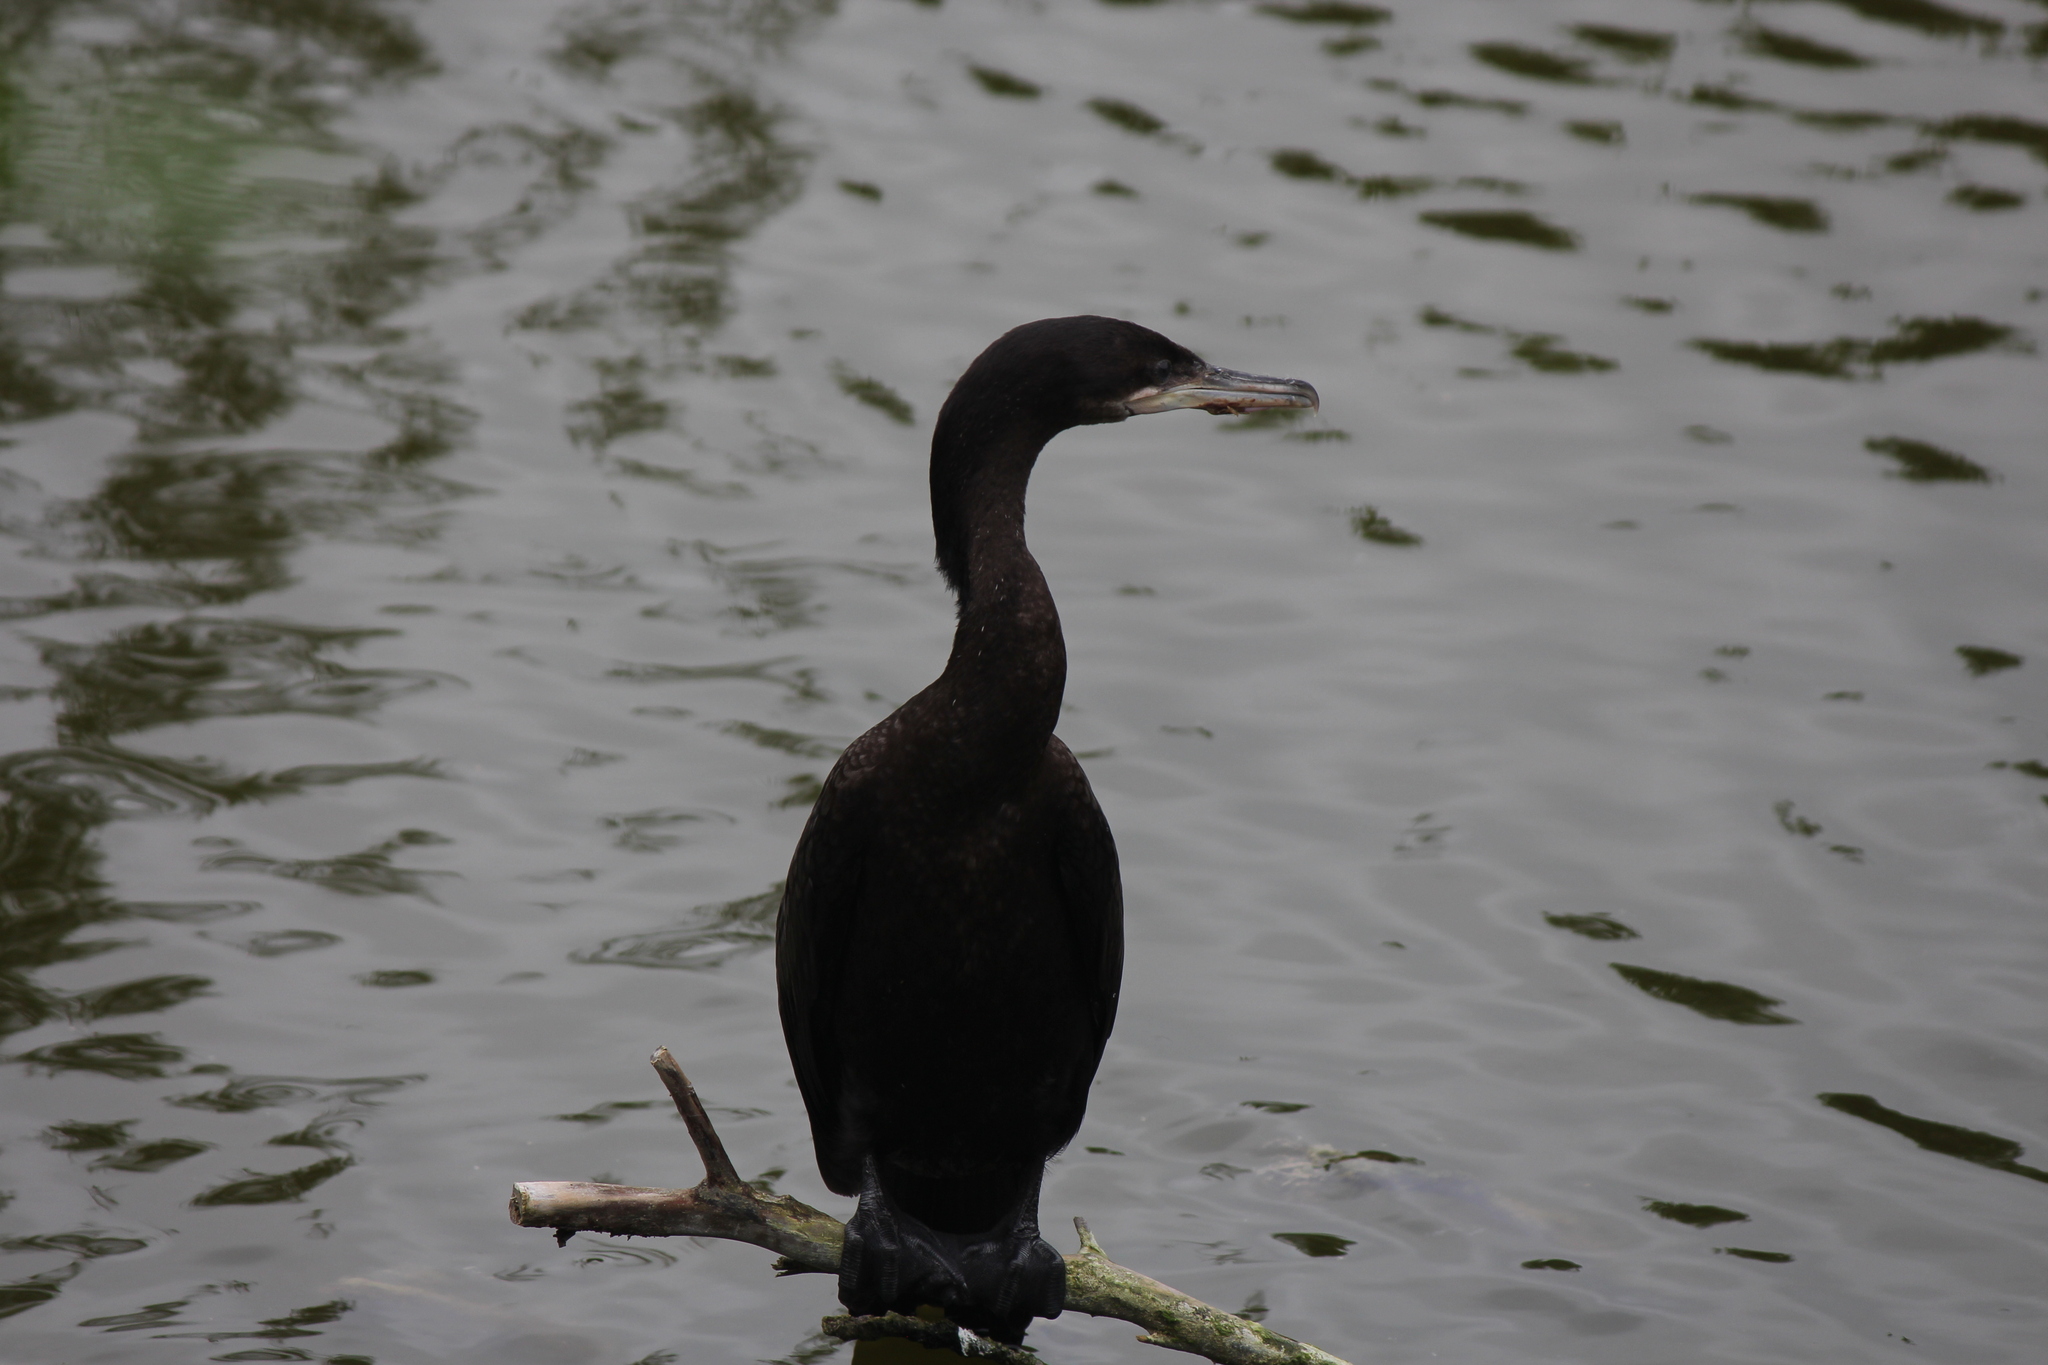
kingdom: Animalia
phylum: Chordata
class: Aves
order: Suliformes
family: Phalacrocoracidae
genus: Phalacrocorax
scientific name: Phalacrocorax brasilianus
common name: Neotropic cormorant
